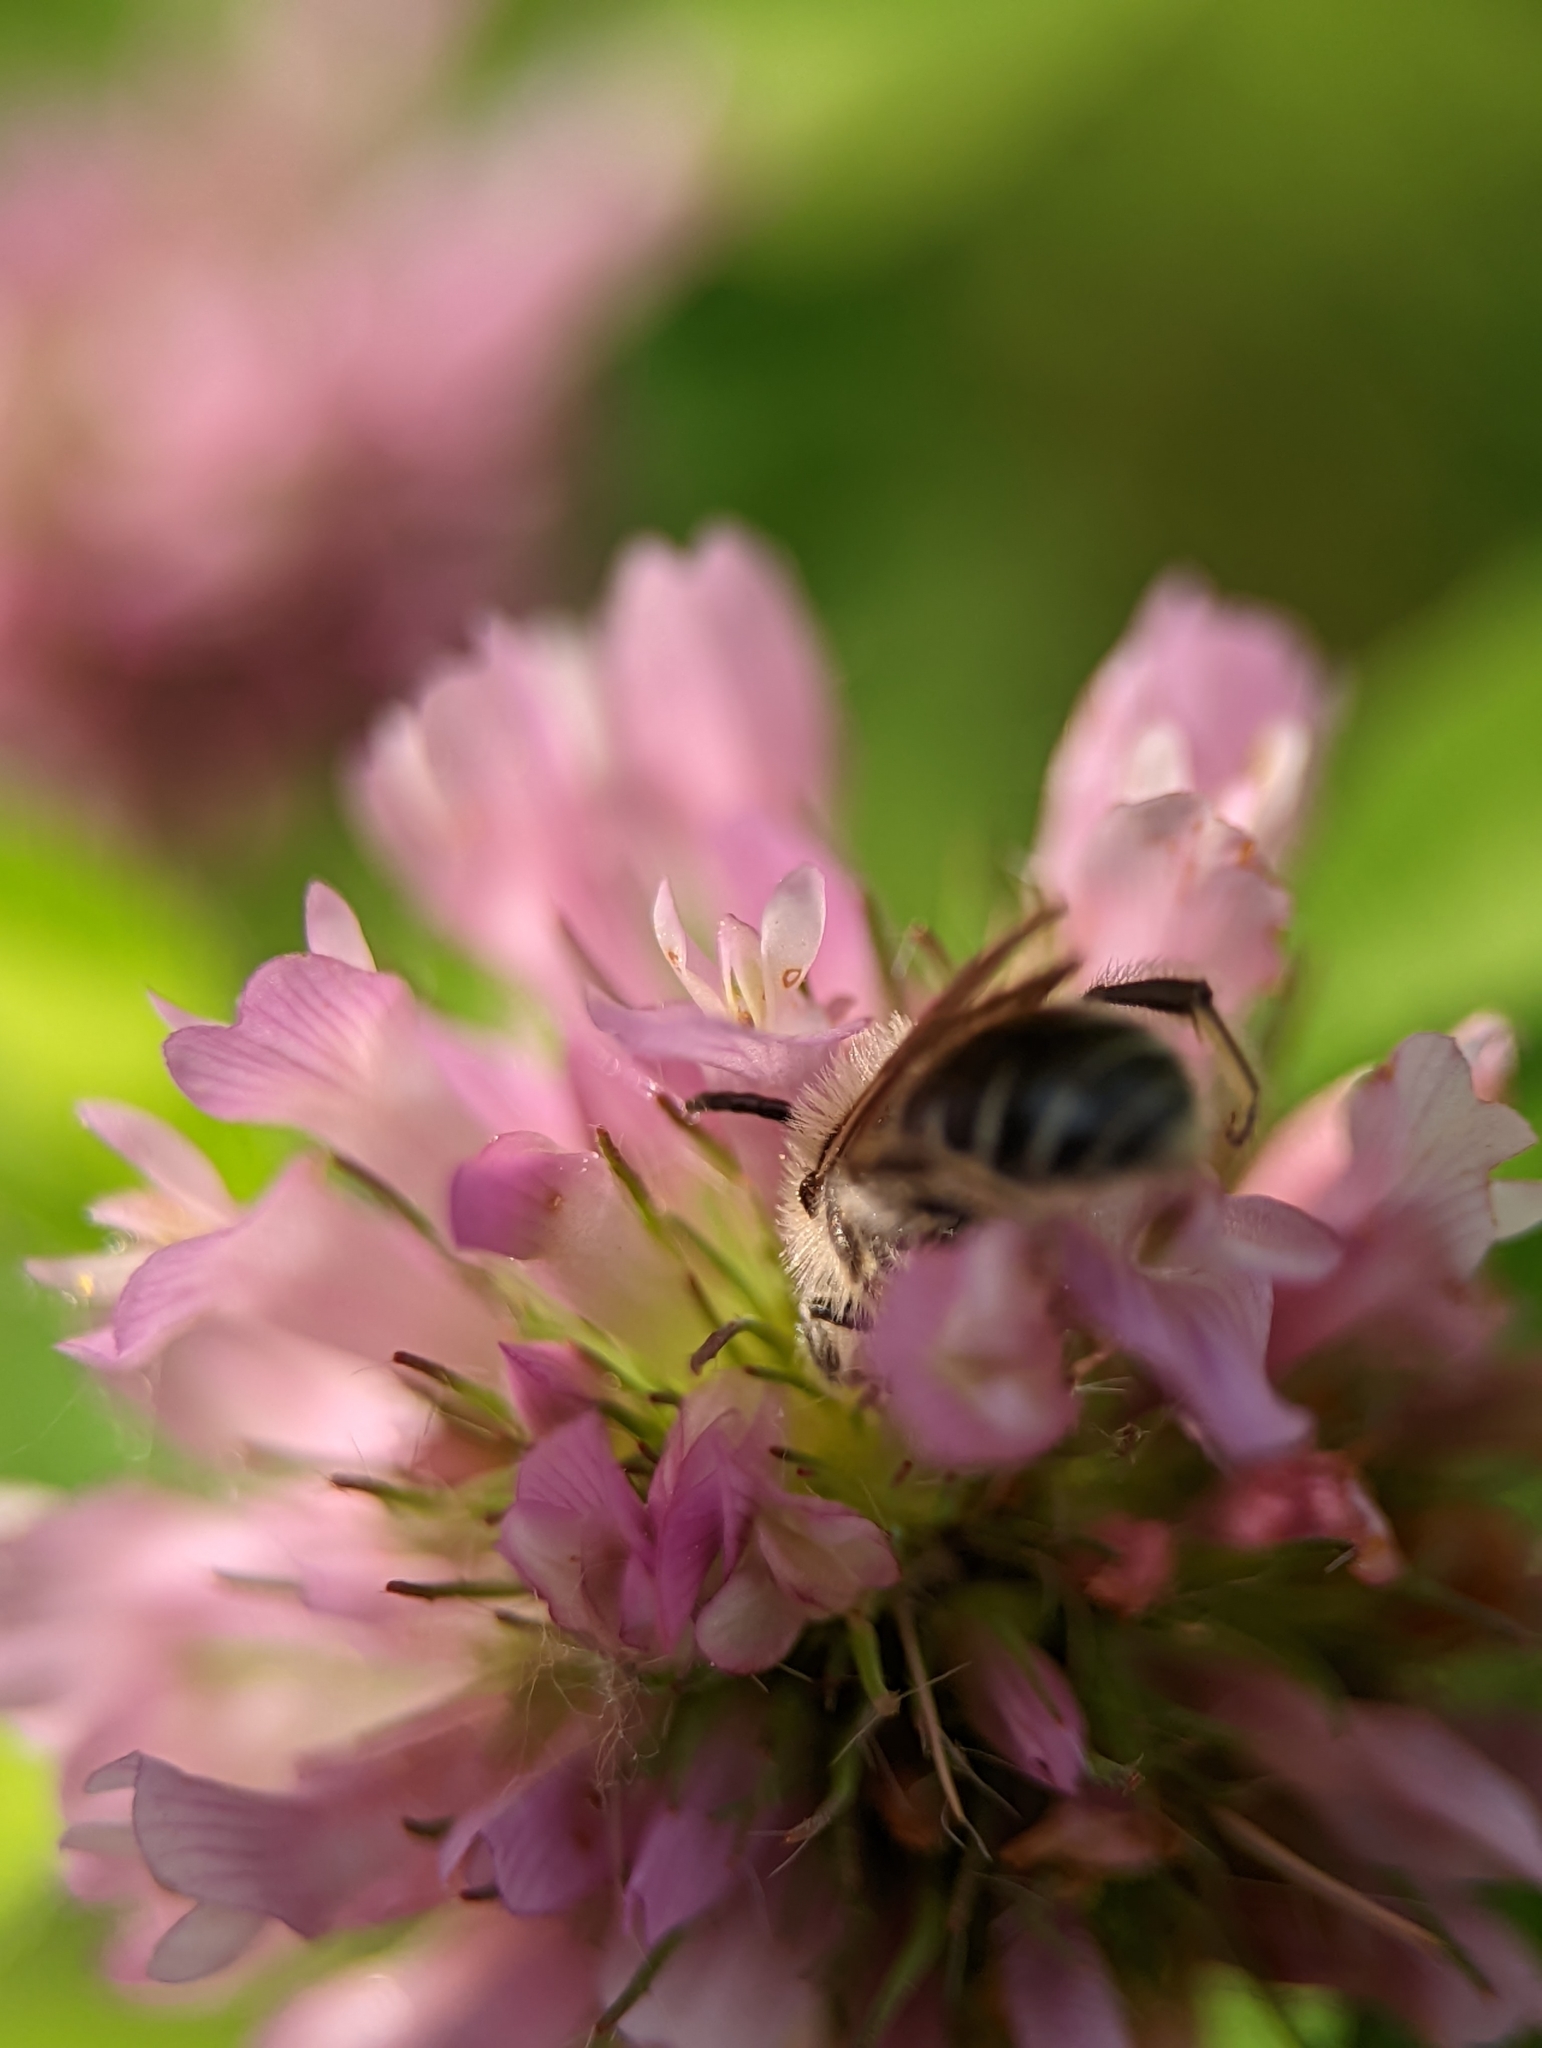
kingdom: Plantae
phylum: Tracheophyta
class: Magnoliopsida
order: Fabales
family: Fabaceae
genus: Trifolium
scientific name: Trifolium pratense
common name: Red clover
